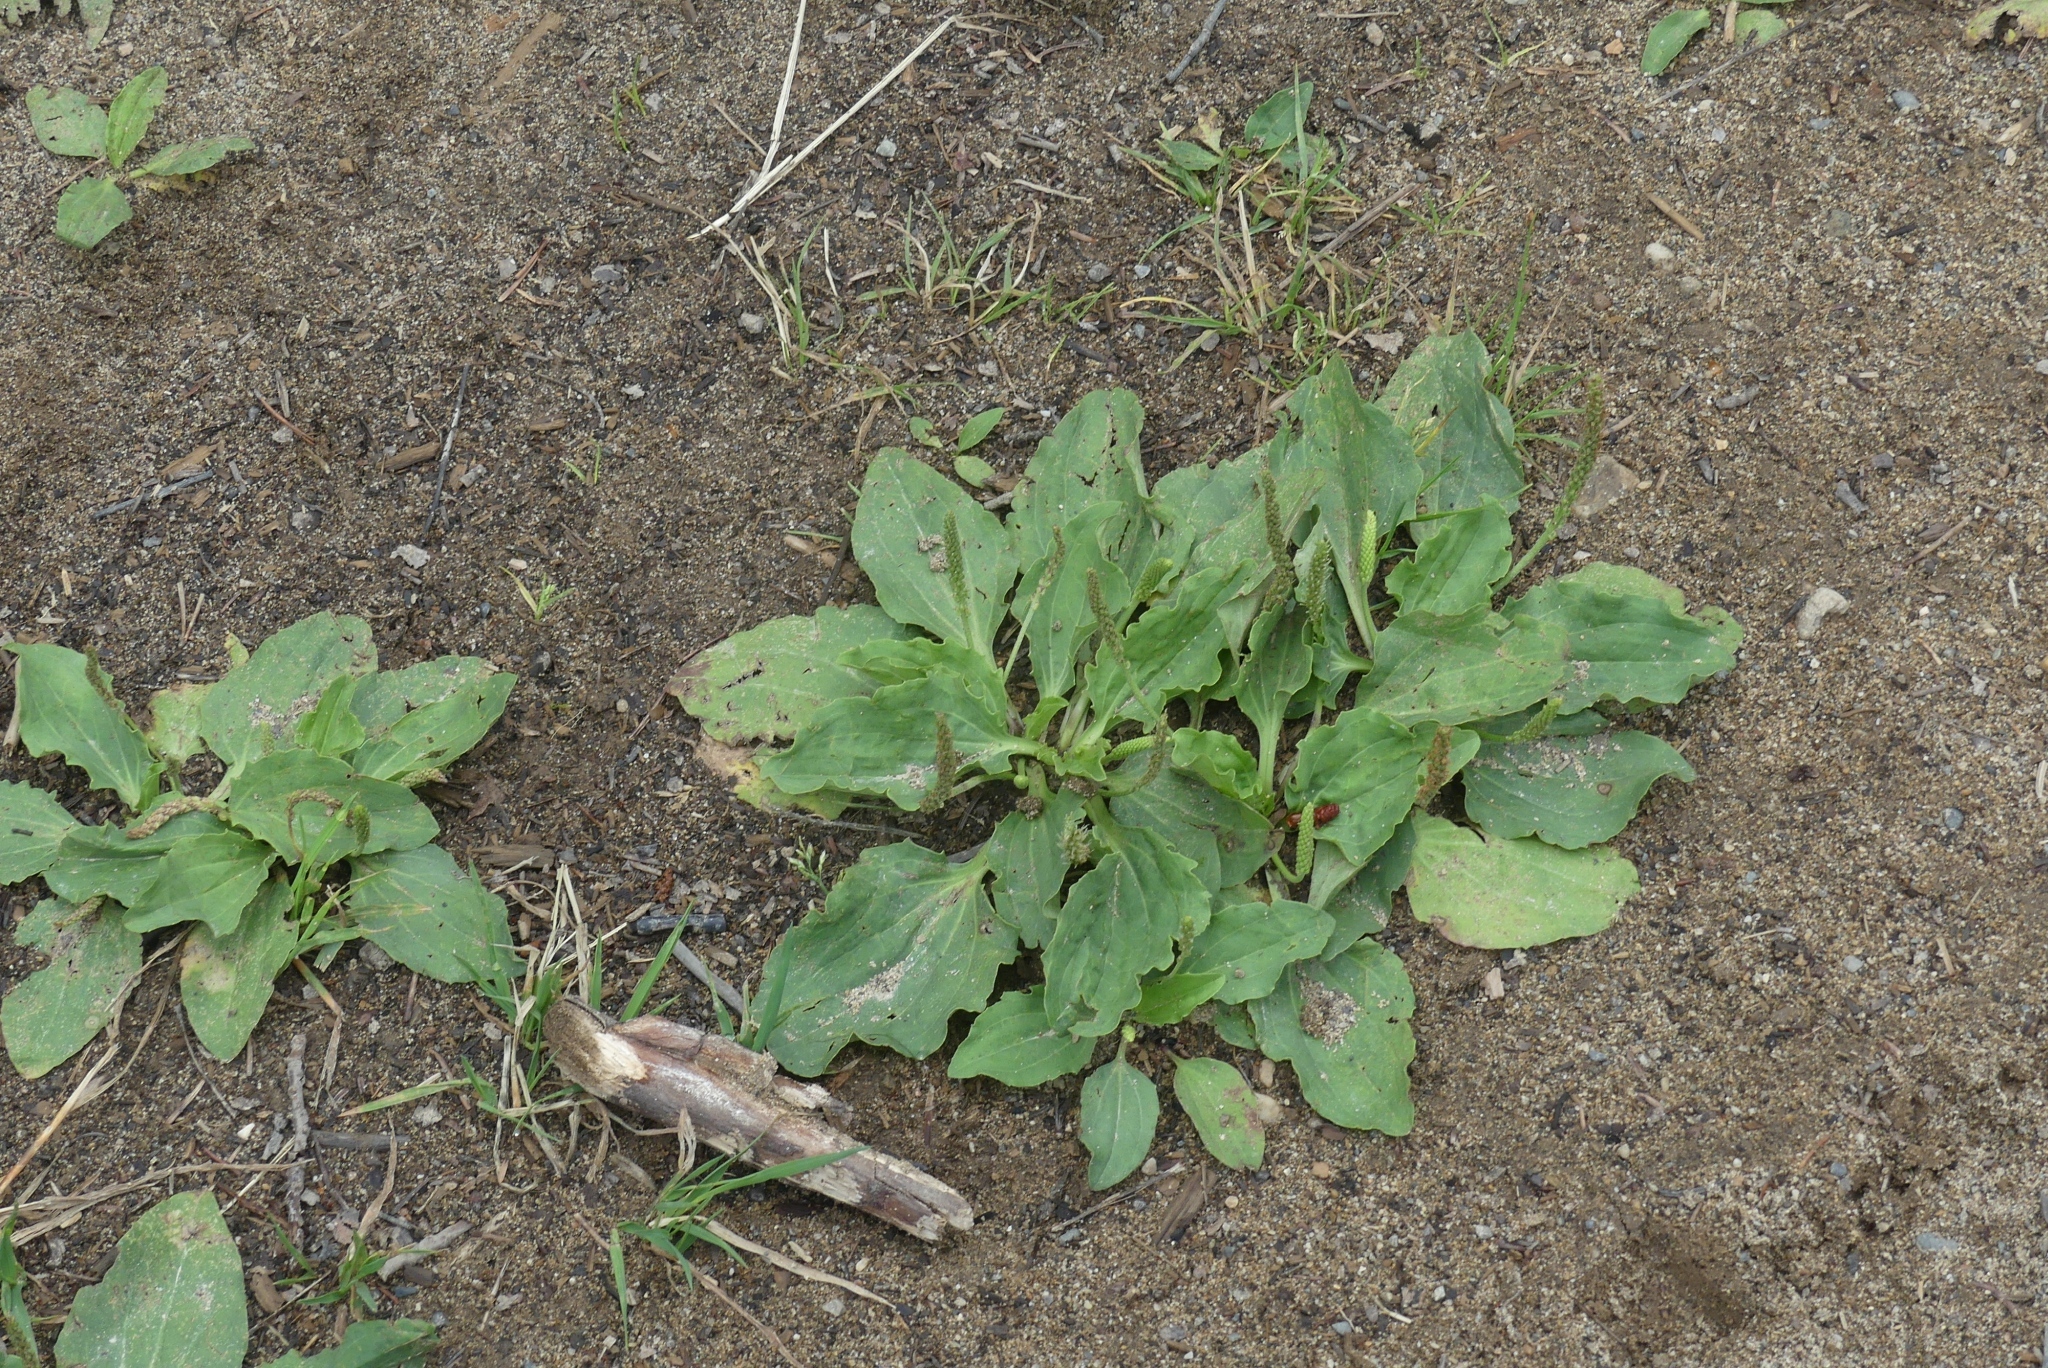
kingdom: Plantae
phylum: Tracheophyta
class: Magnoliopsida
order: Lamiales
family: Plantaginaceae
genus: Plantago
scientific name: Plantago major
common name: Common plantain
